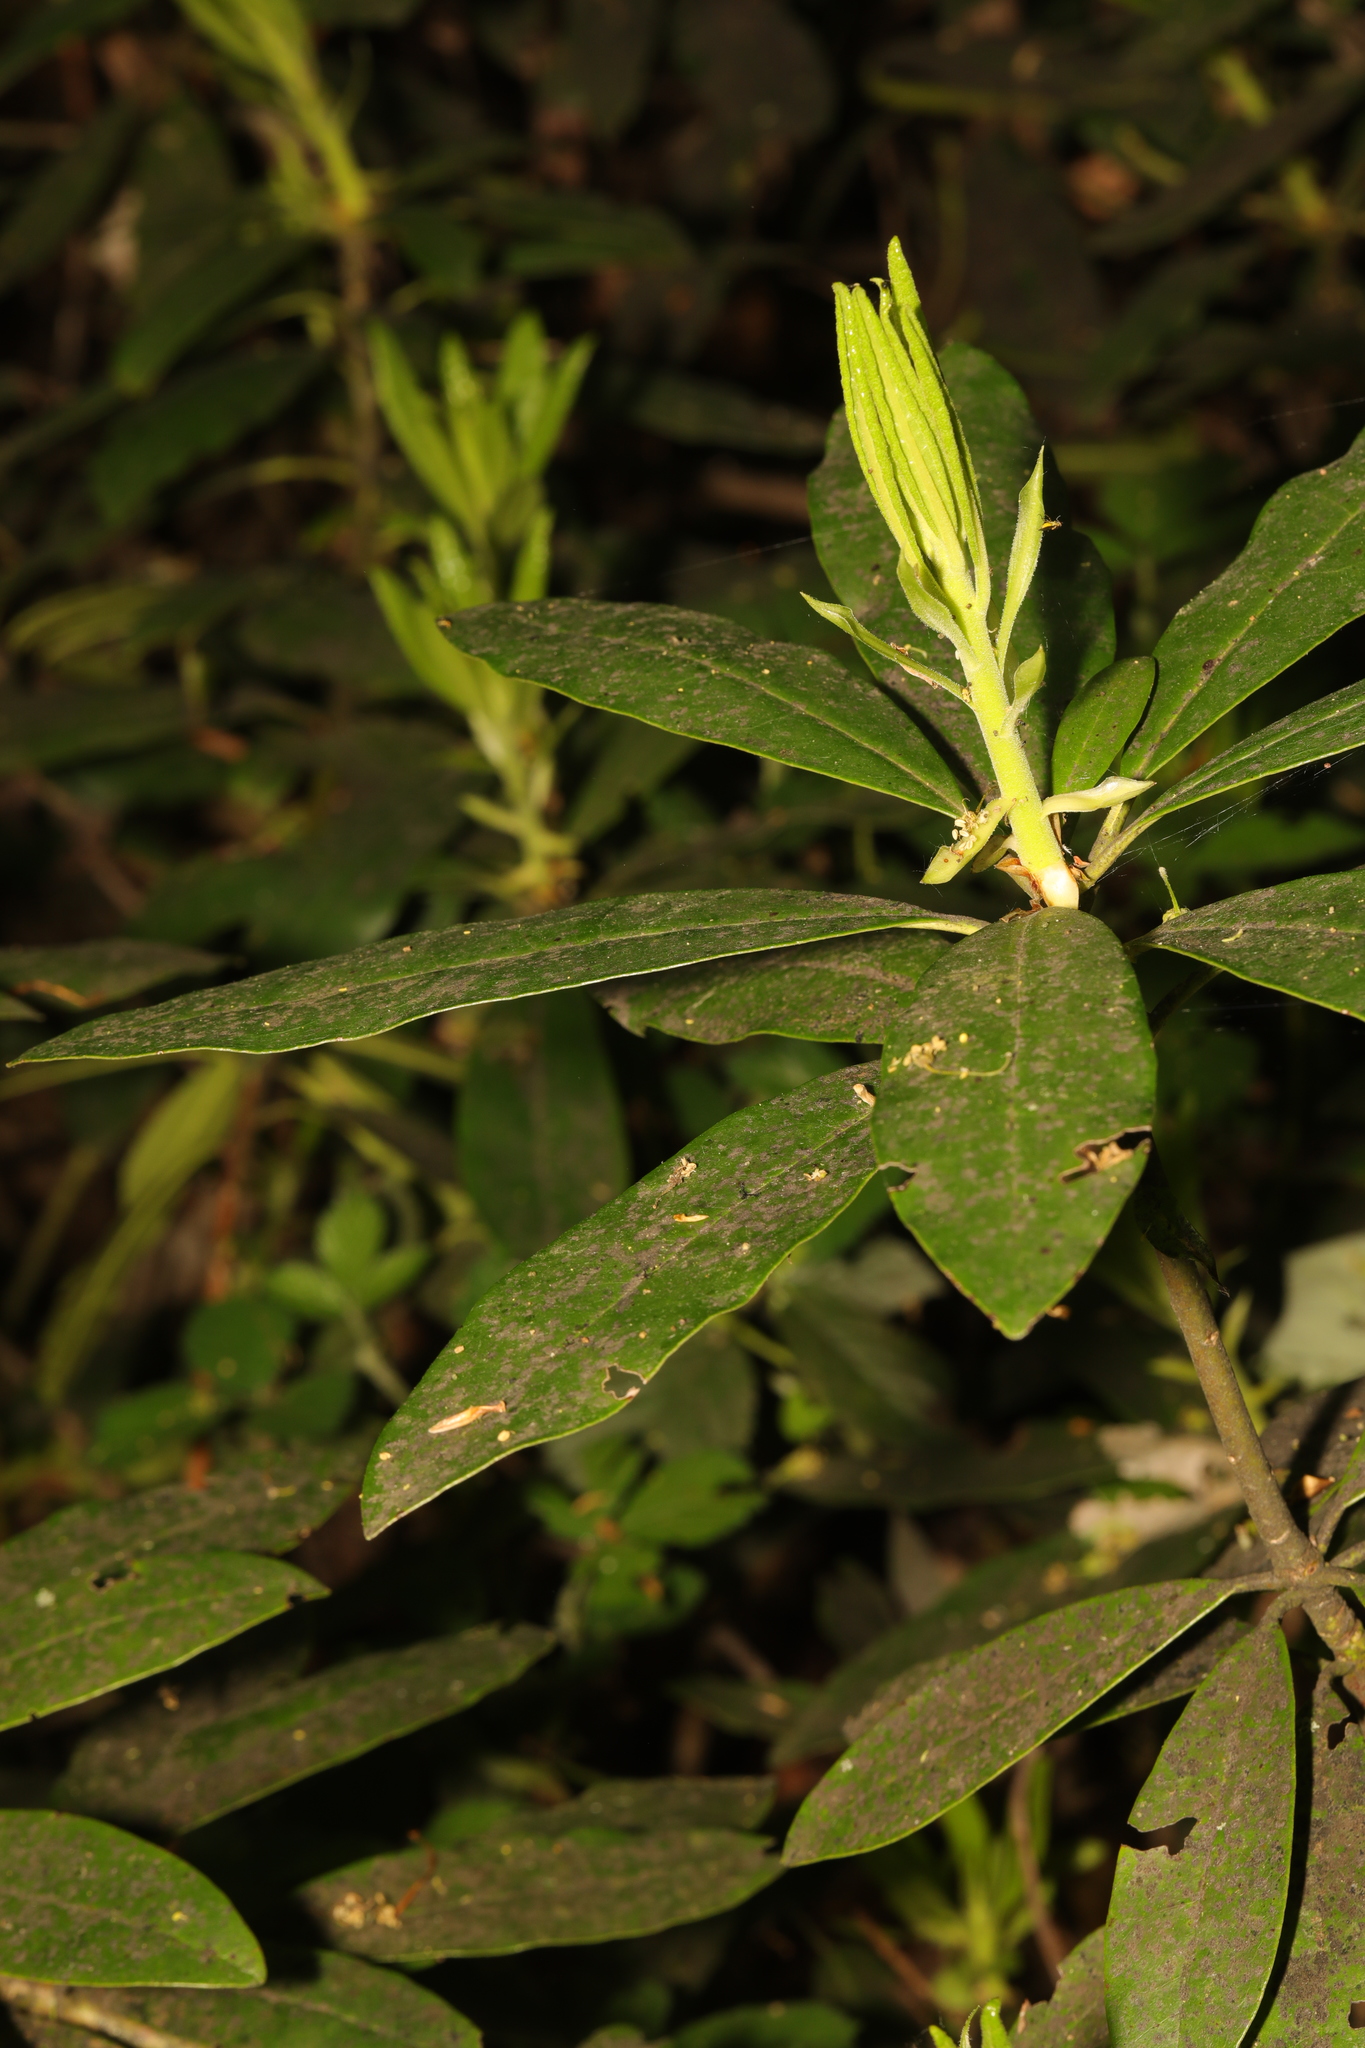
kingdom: Plantae
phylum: Tracheophyta
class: Magnoliopsida
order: Ericales
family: Ericaceae
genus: Rhododendron
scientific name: Rhododendron ponticum
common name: Rhododendron
